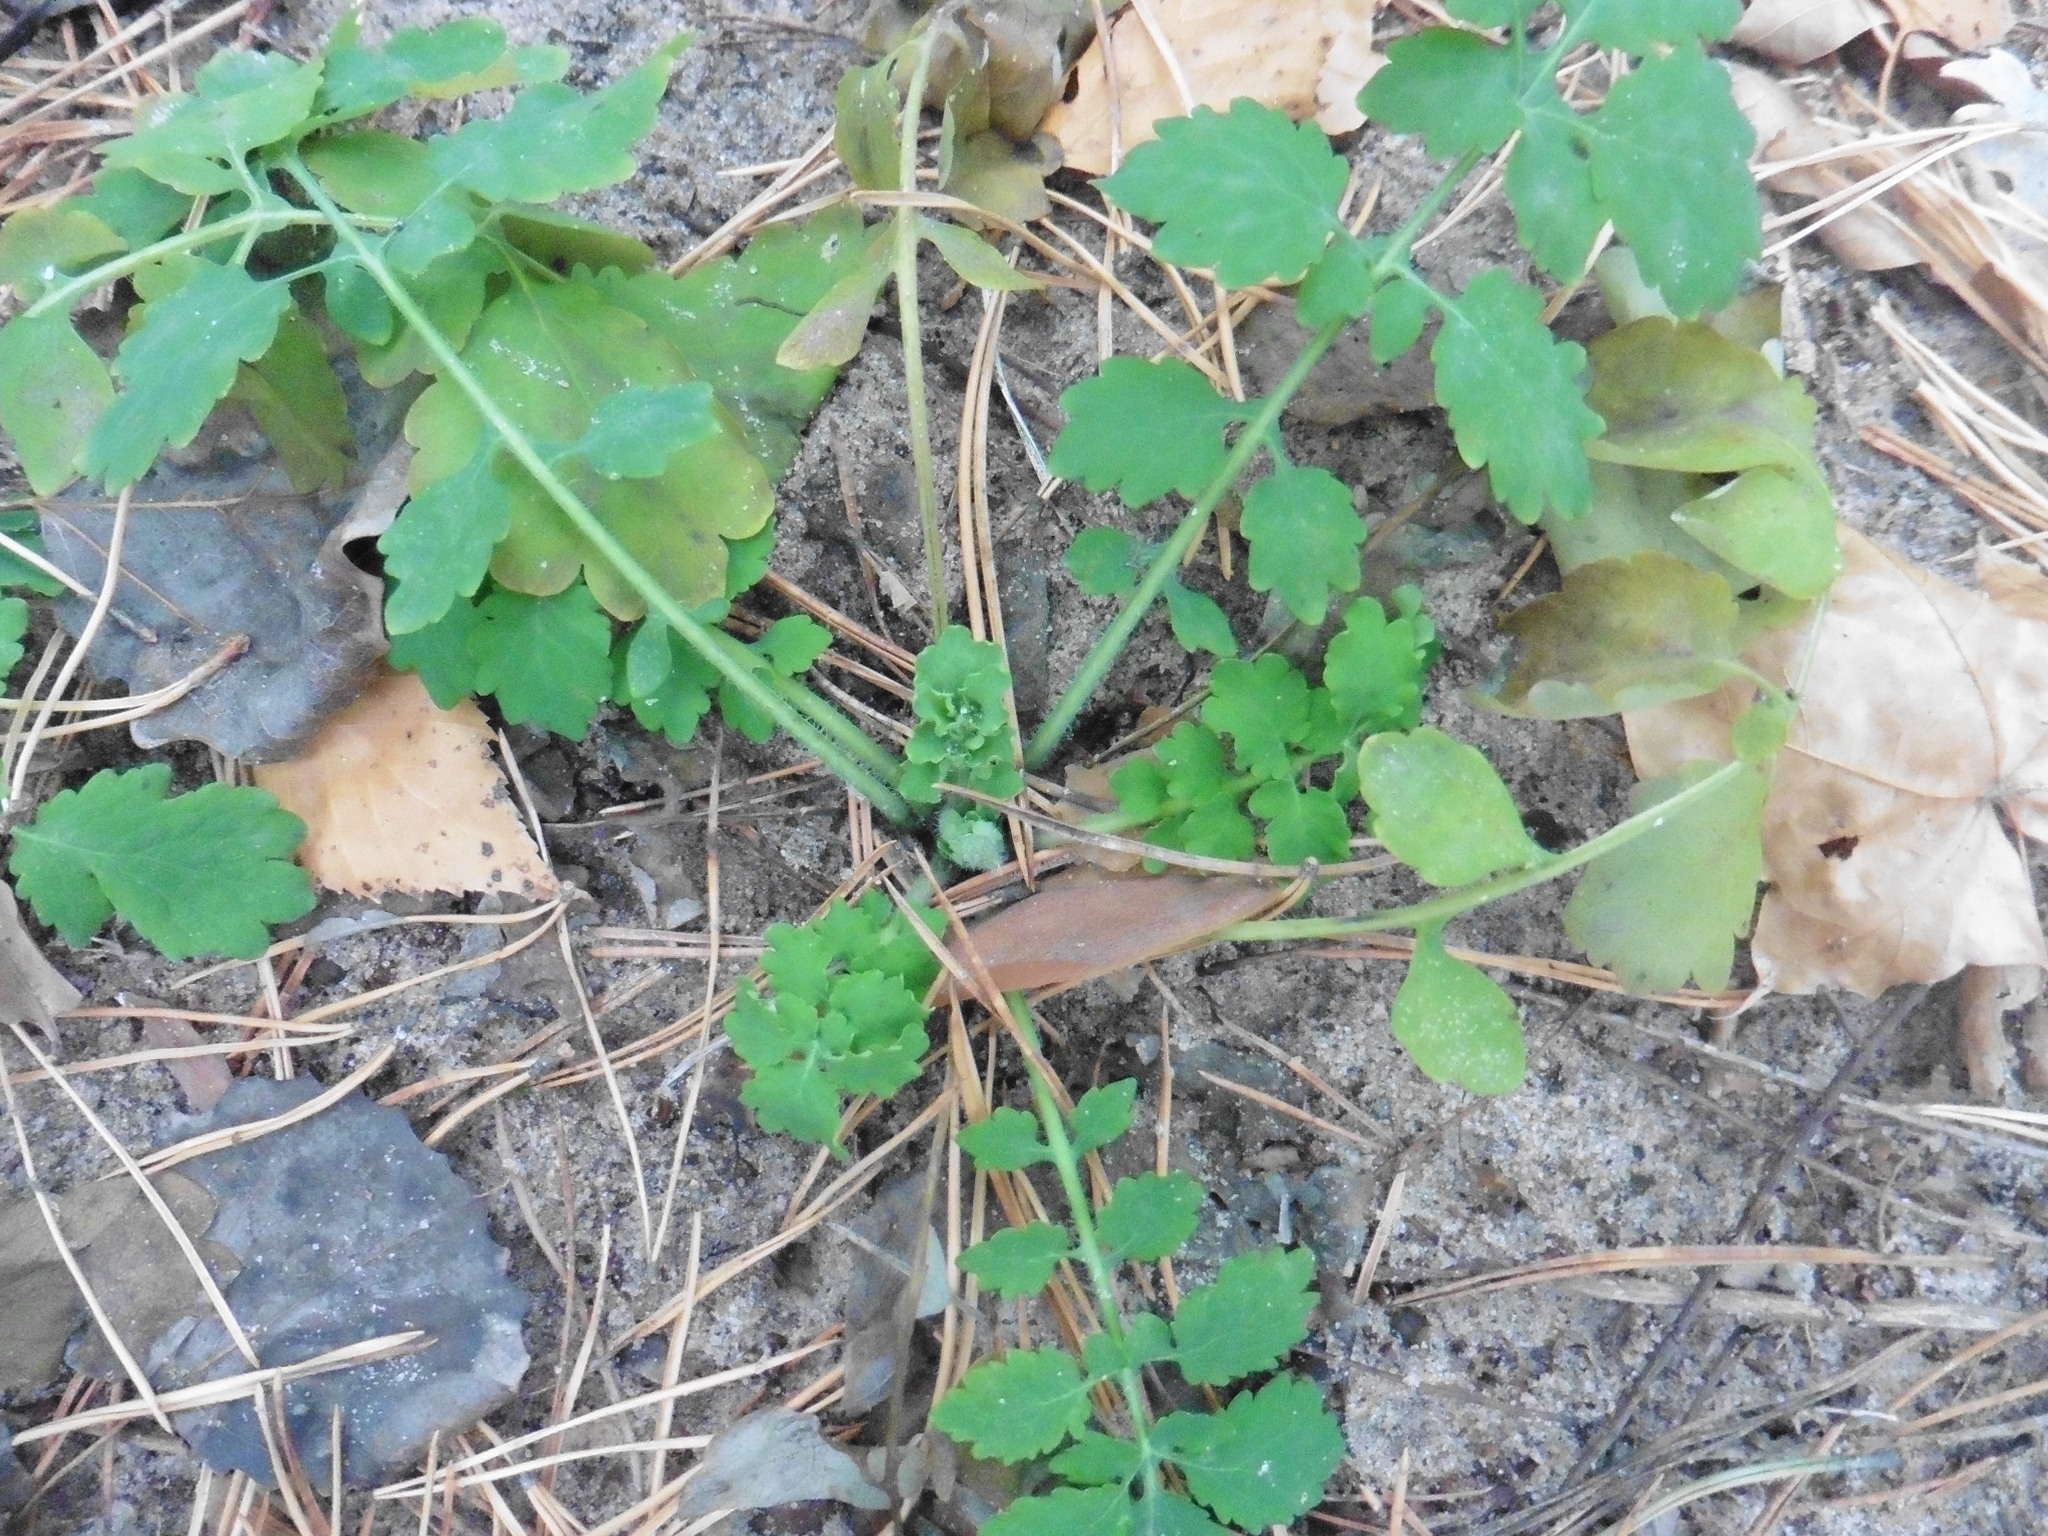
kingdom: Plantae
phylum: Tracheophyta
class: Magnoliopsida
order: Ranunculales
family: Papaveraceae
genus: Chelidonium
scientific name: Chelidonium majus
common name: Greater celandine
